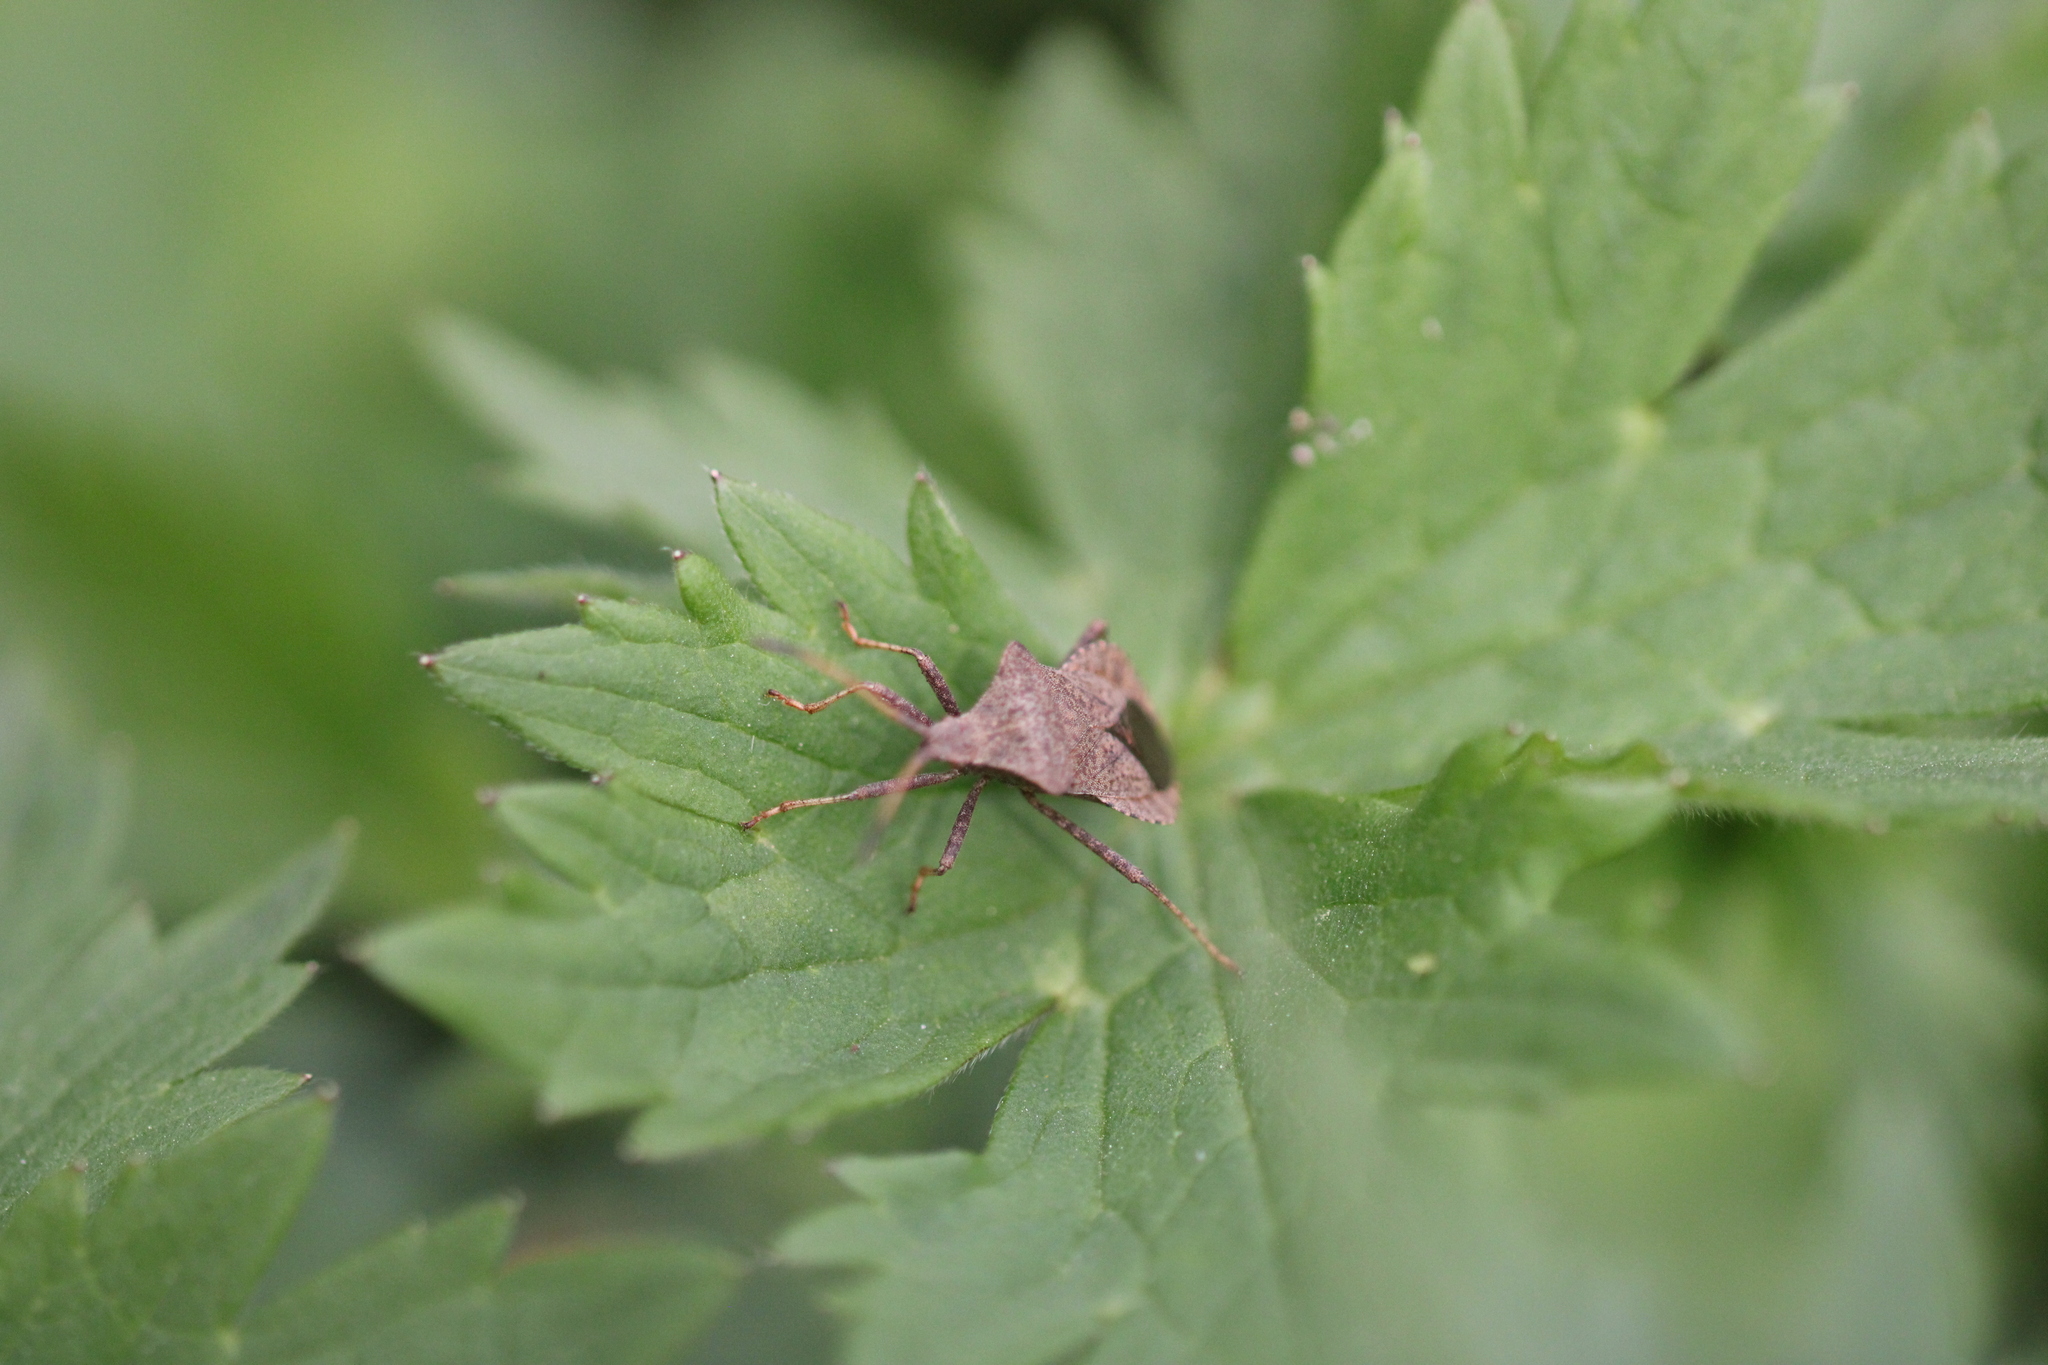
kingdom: Animalia
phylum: Arthropoda
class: Insecta
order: Hemiptera
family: Coreidae
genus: Coreus
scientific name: Coreus marginatus
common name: Dock bug
